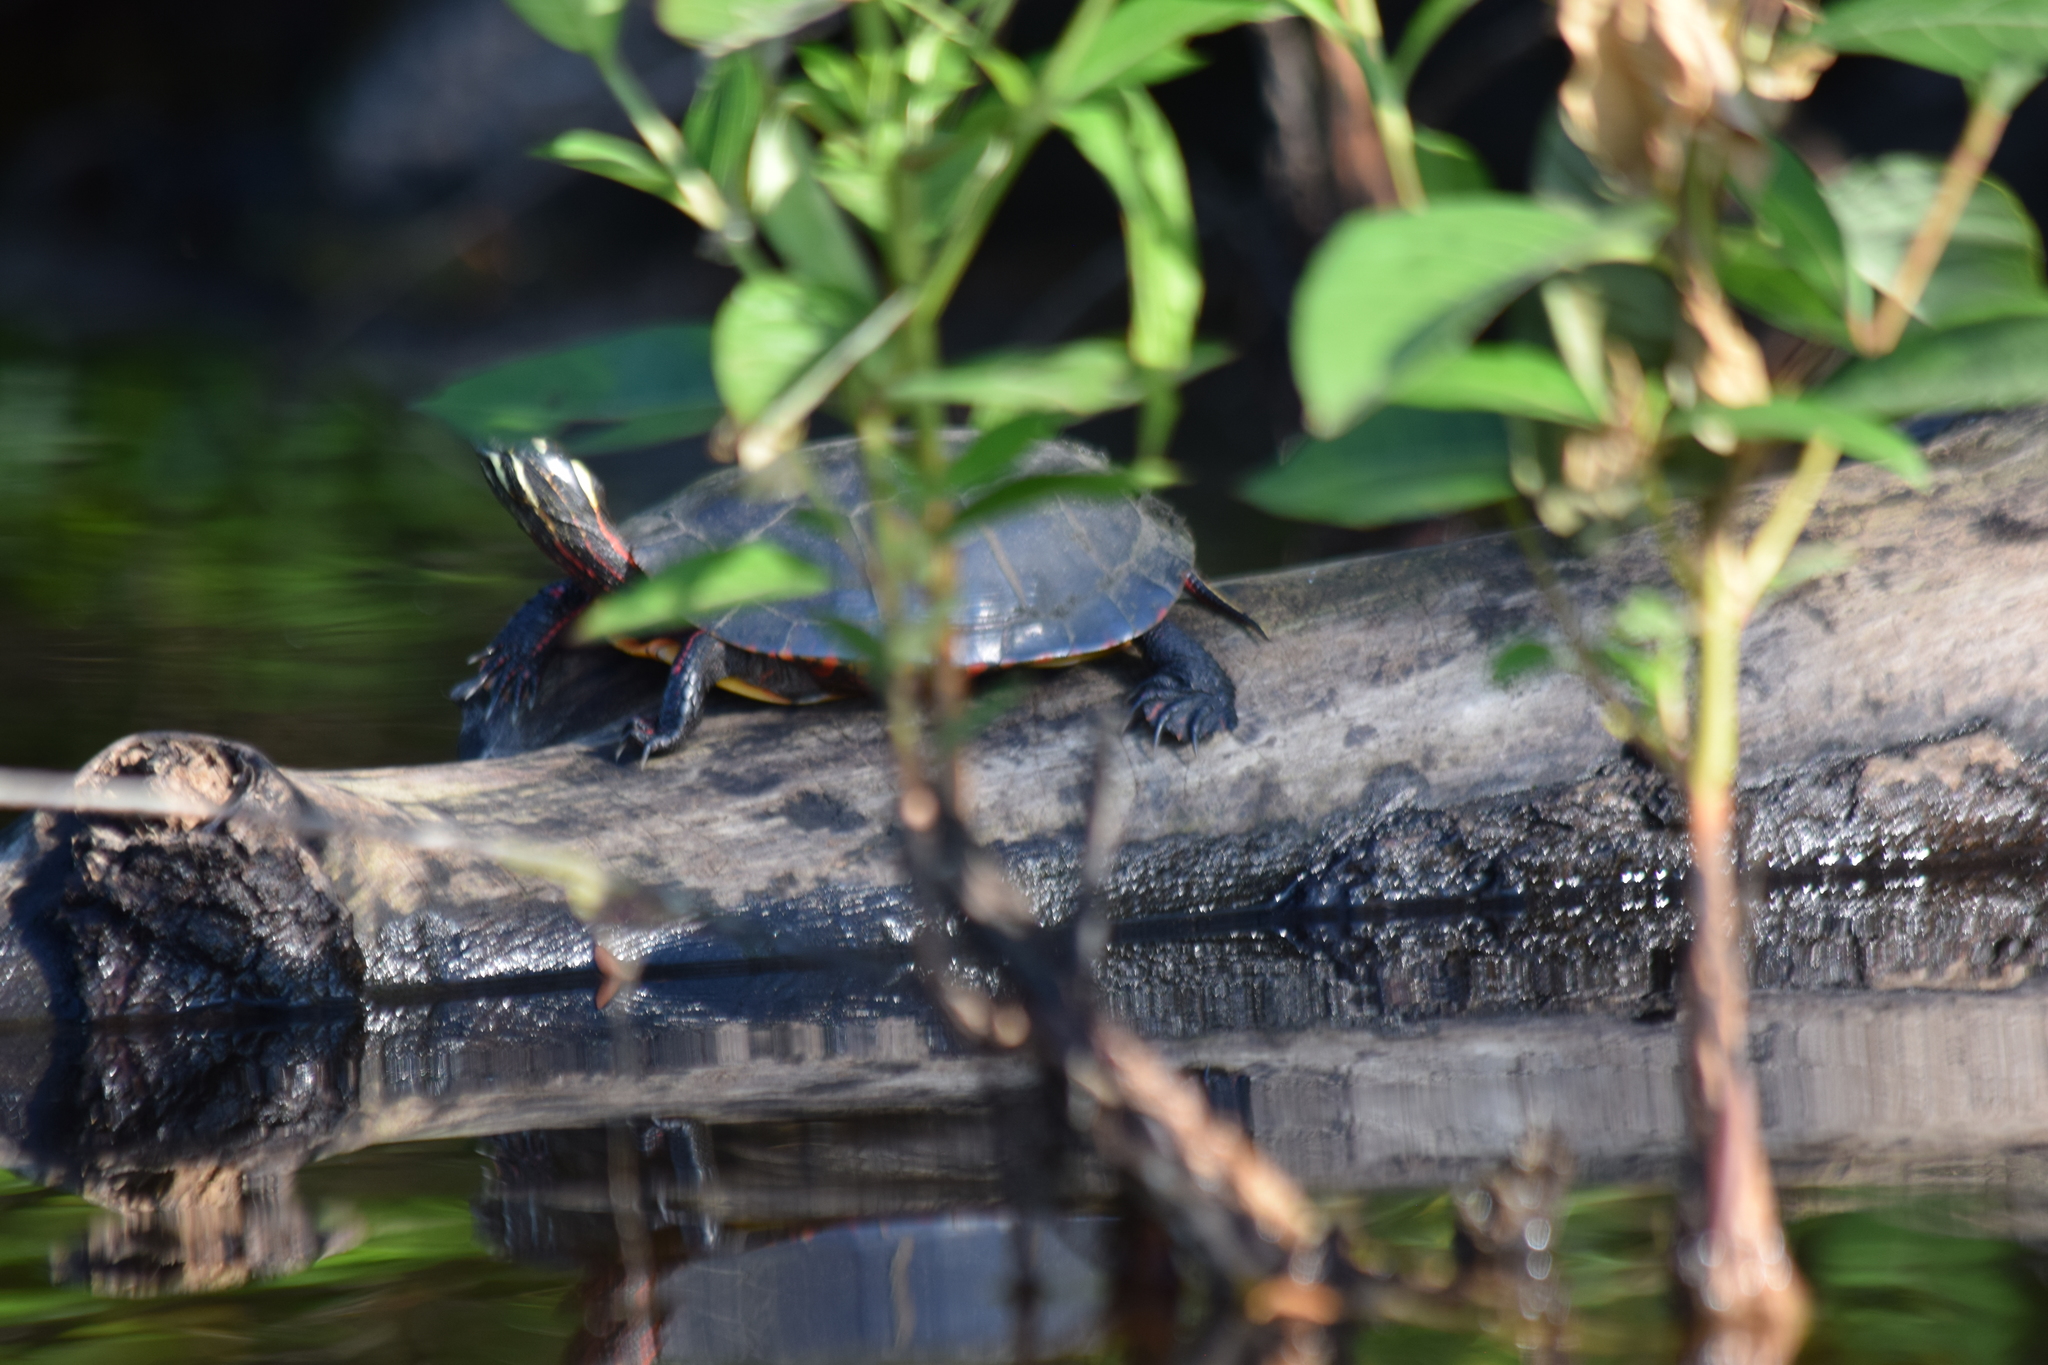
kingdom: Animalia
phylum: Chordata
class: Testudines
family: Emydidae
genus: Chrysemys
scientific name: Chrysemys picta
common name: Painted turtle
